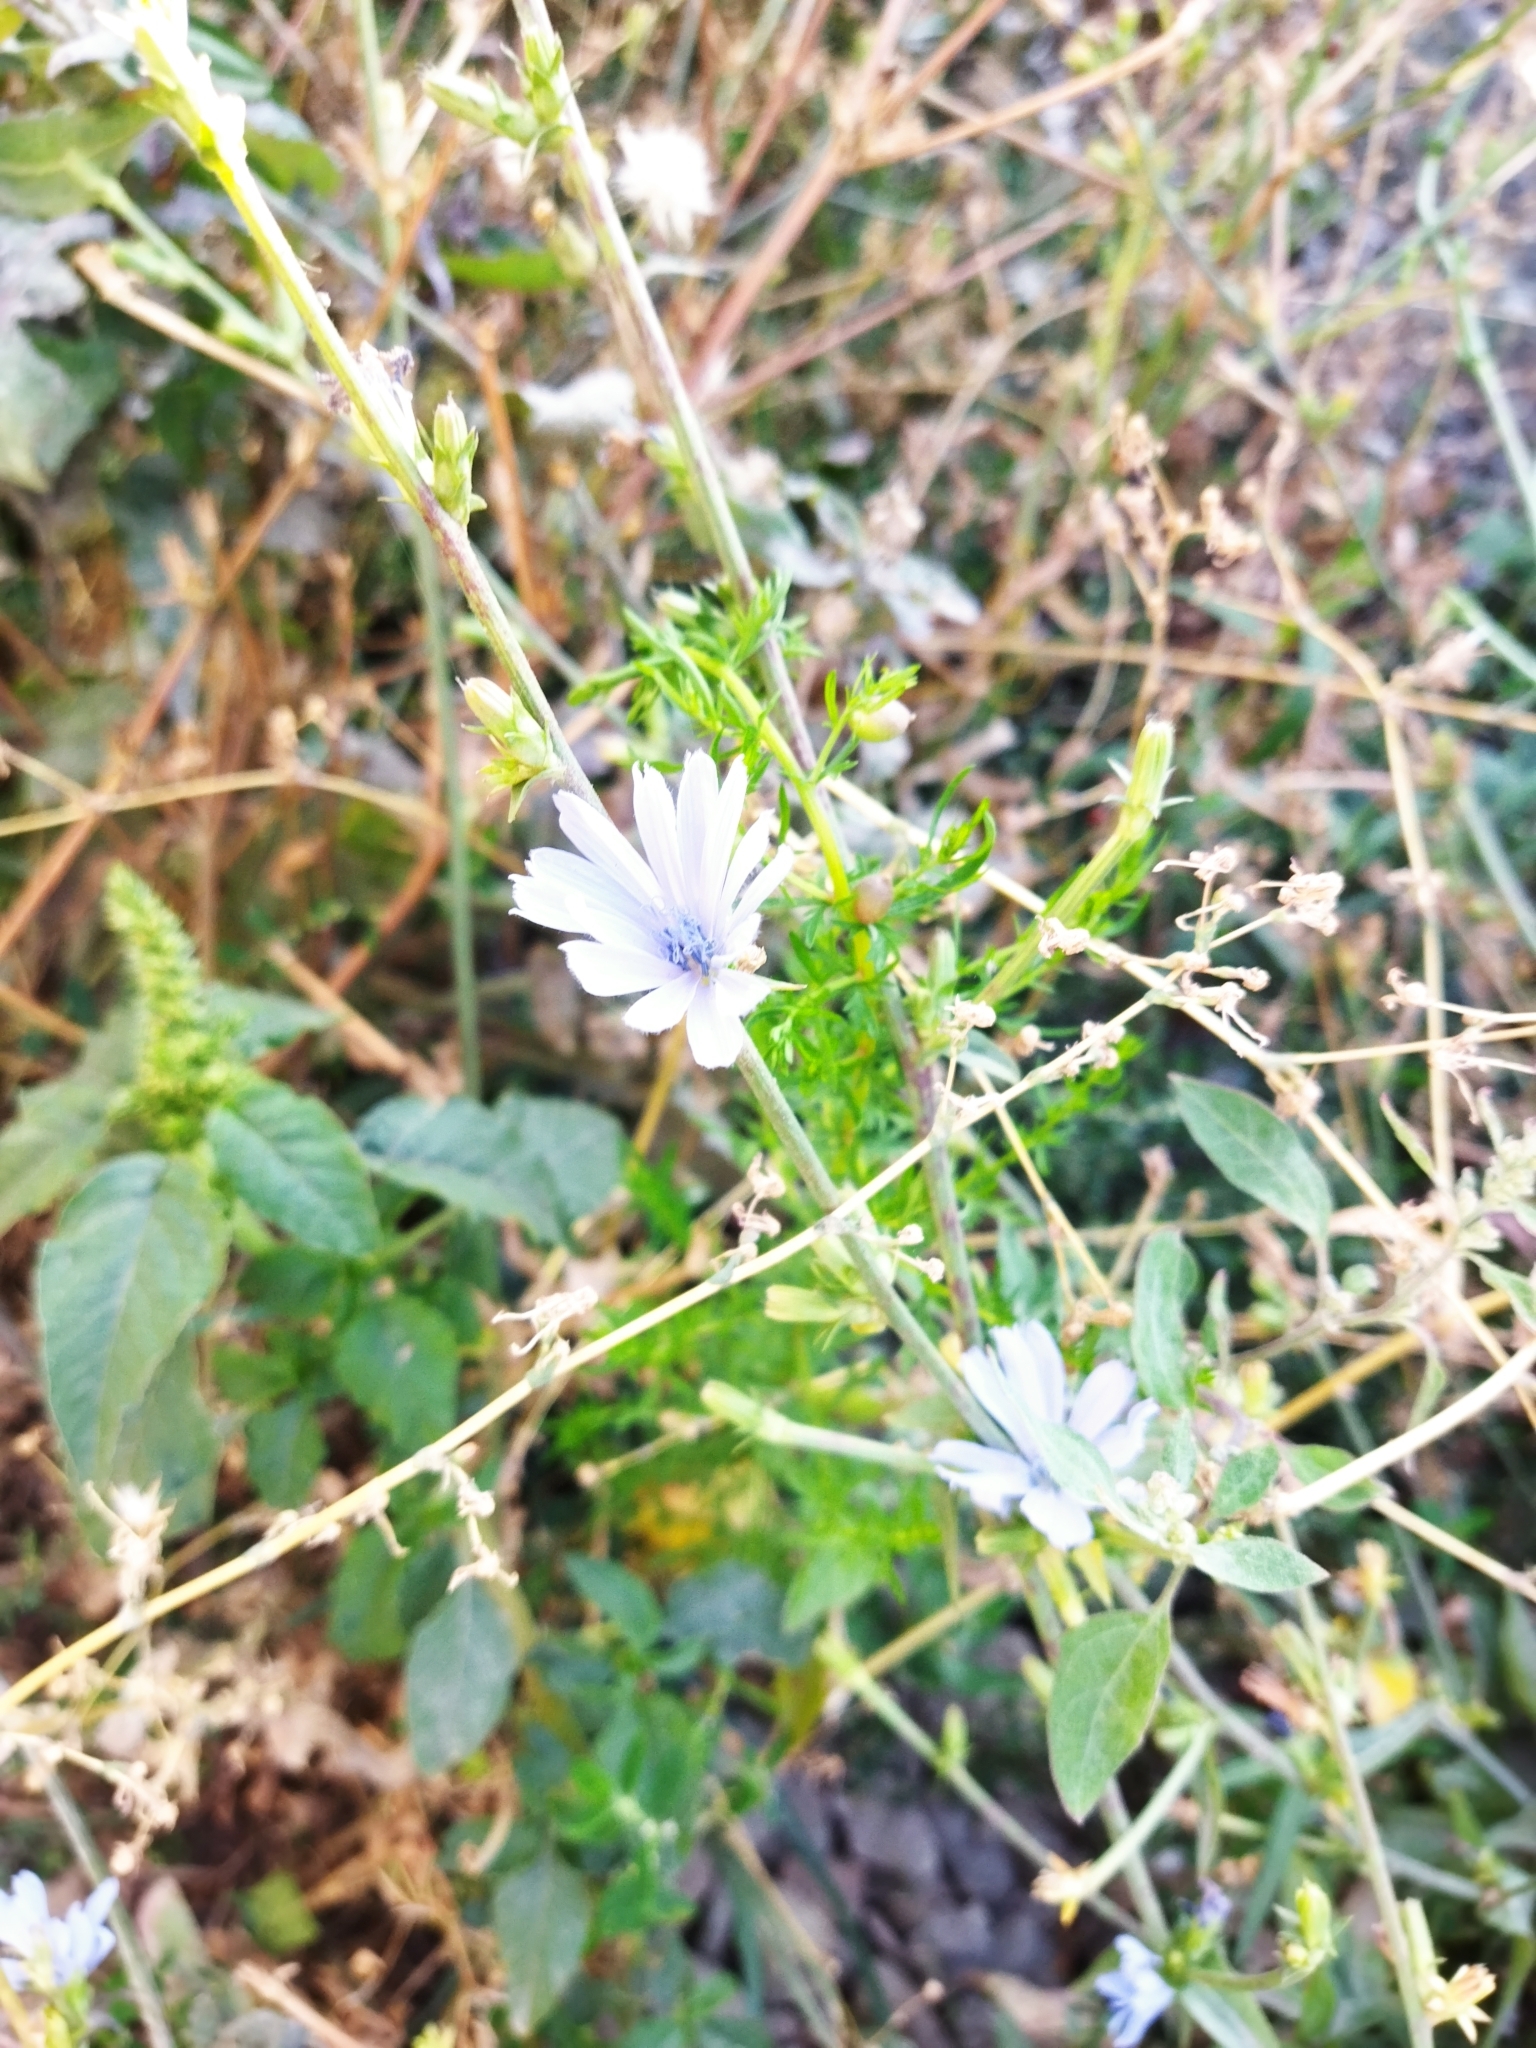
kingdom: Plantae
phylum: Tracheophyta
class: Magnoliopsida
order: Asterales
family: Asteraceae
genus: Cichorium
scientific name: Cichorium intybus
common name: Chicory
